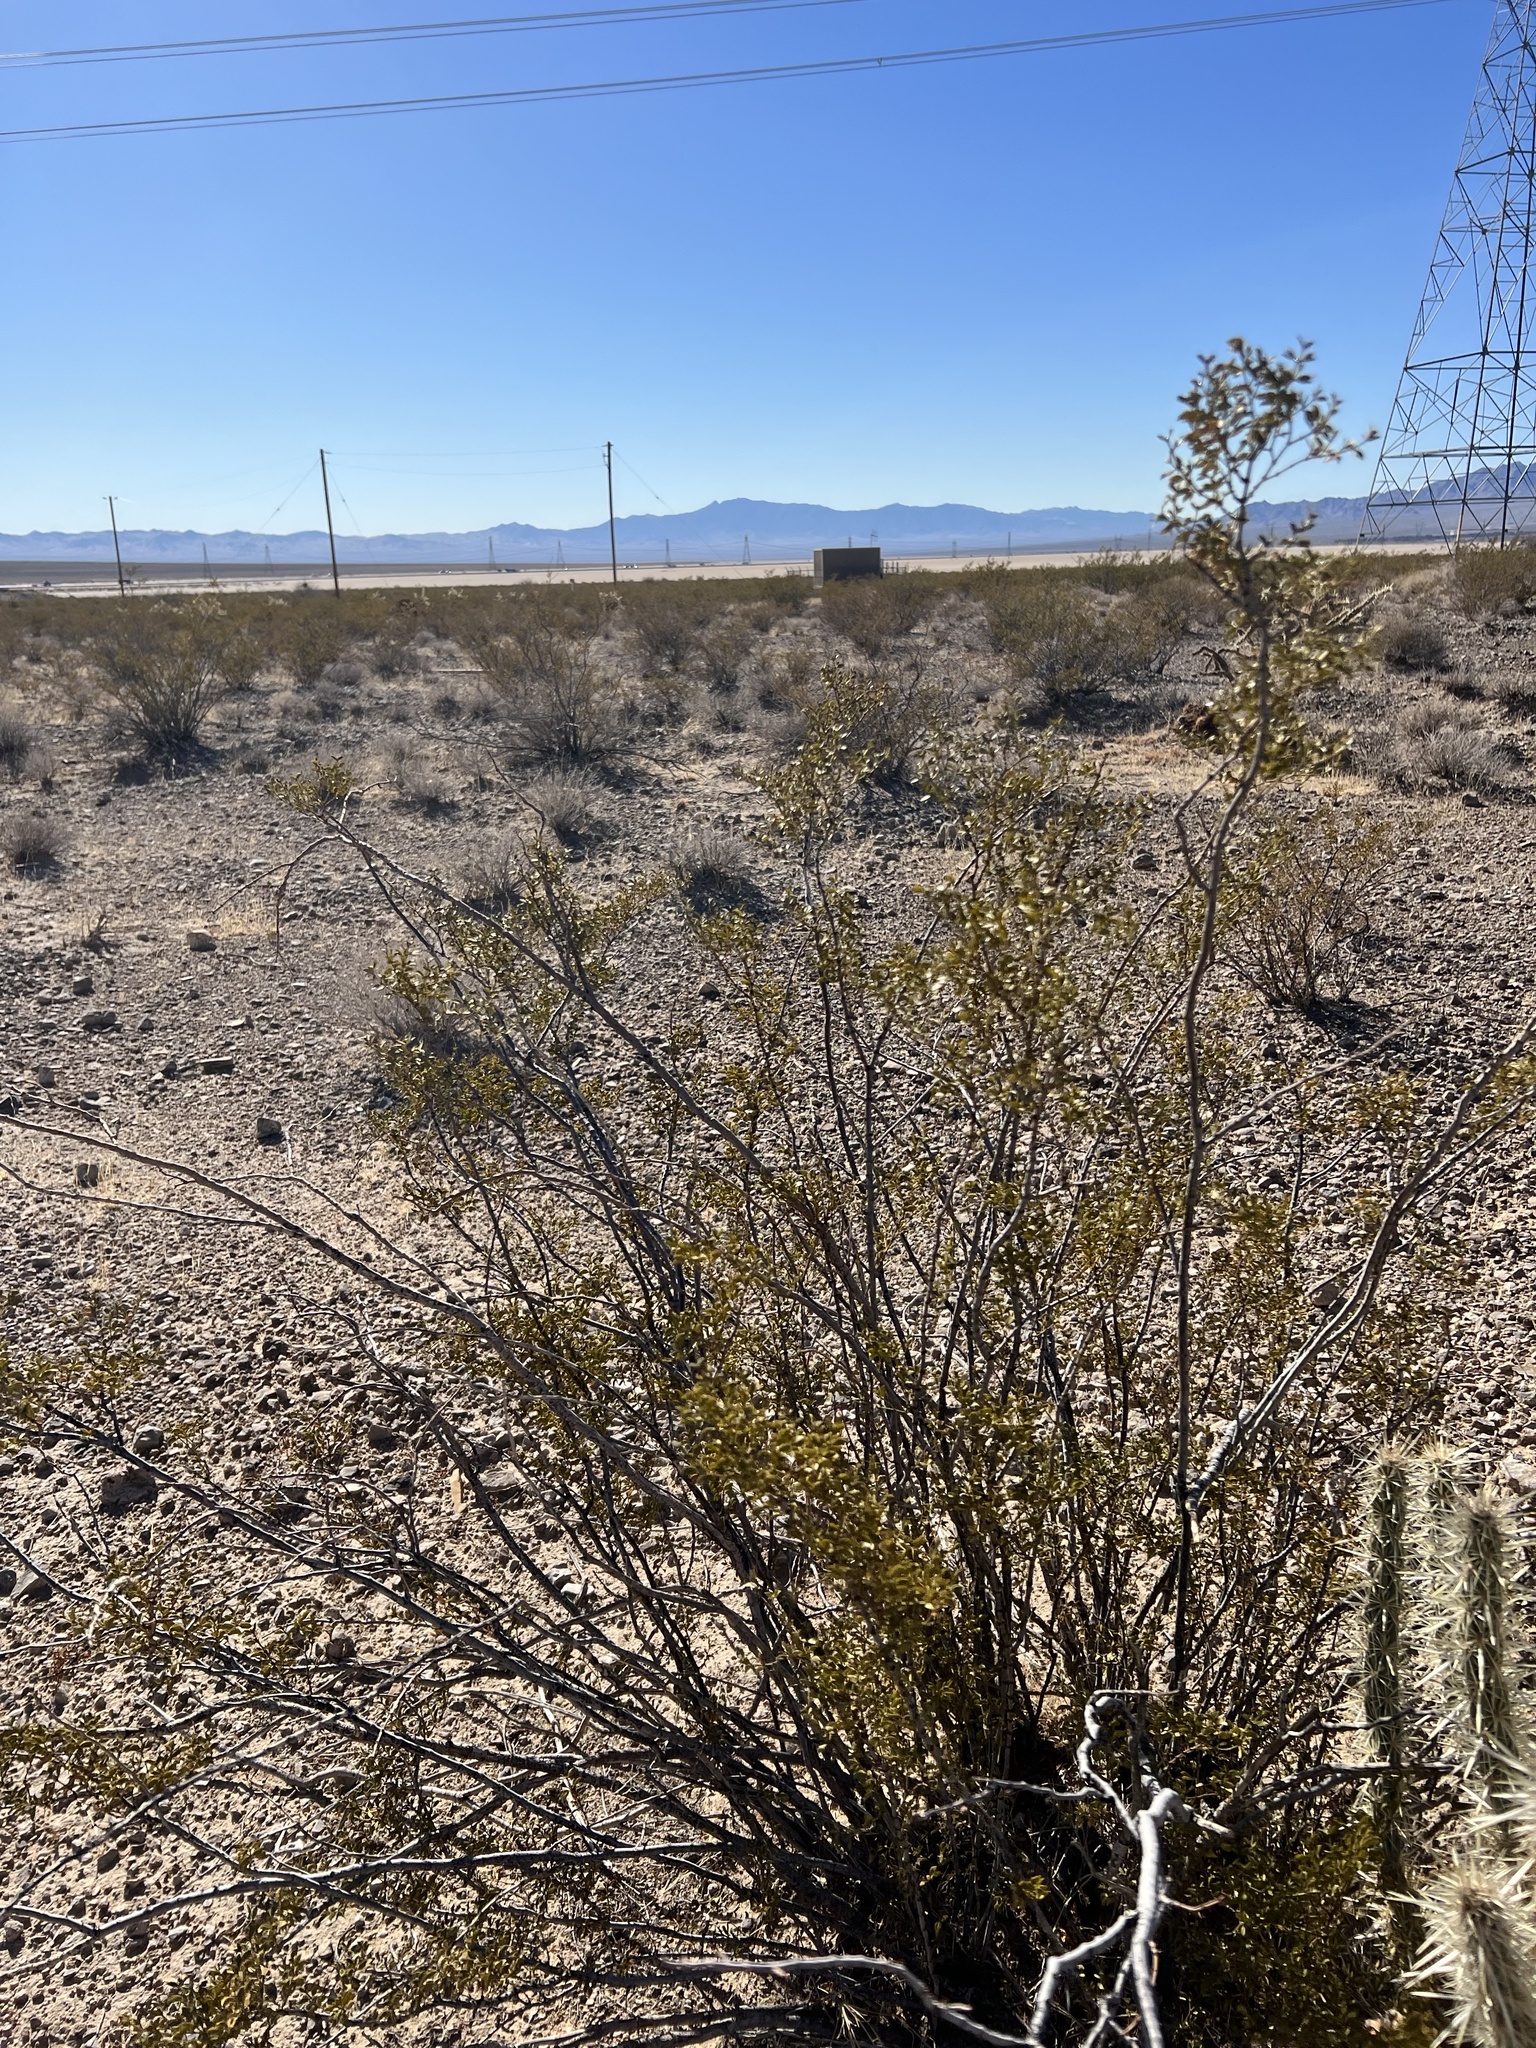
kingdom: Plantae
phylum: Tracheophyta
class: Magnoliopsida
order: Zygophyllales
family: Zygophyllaceae
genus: Larrea
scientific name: Larrea tridentata
